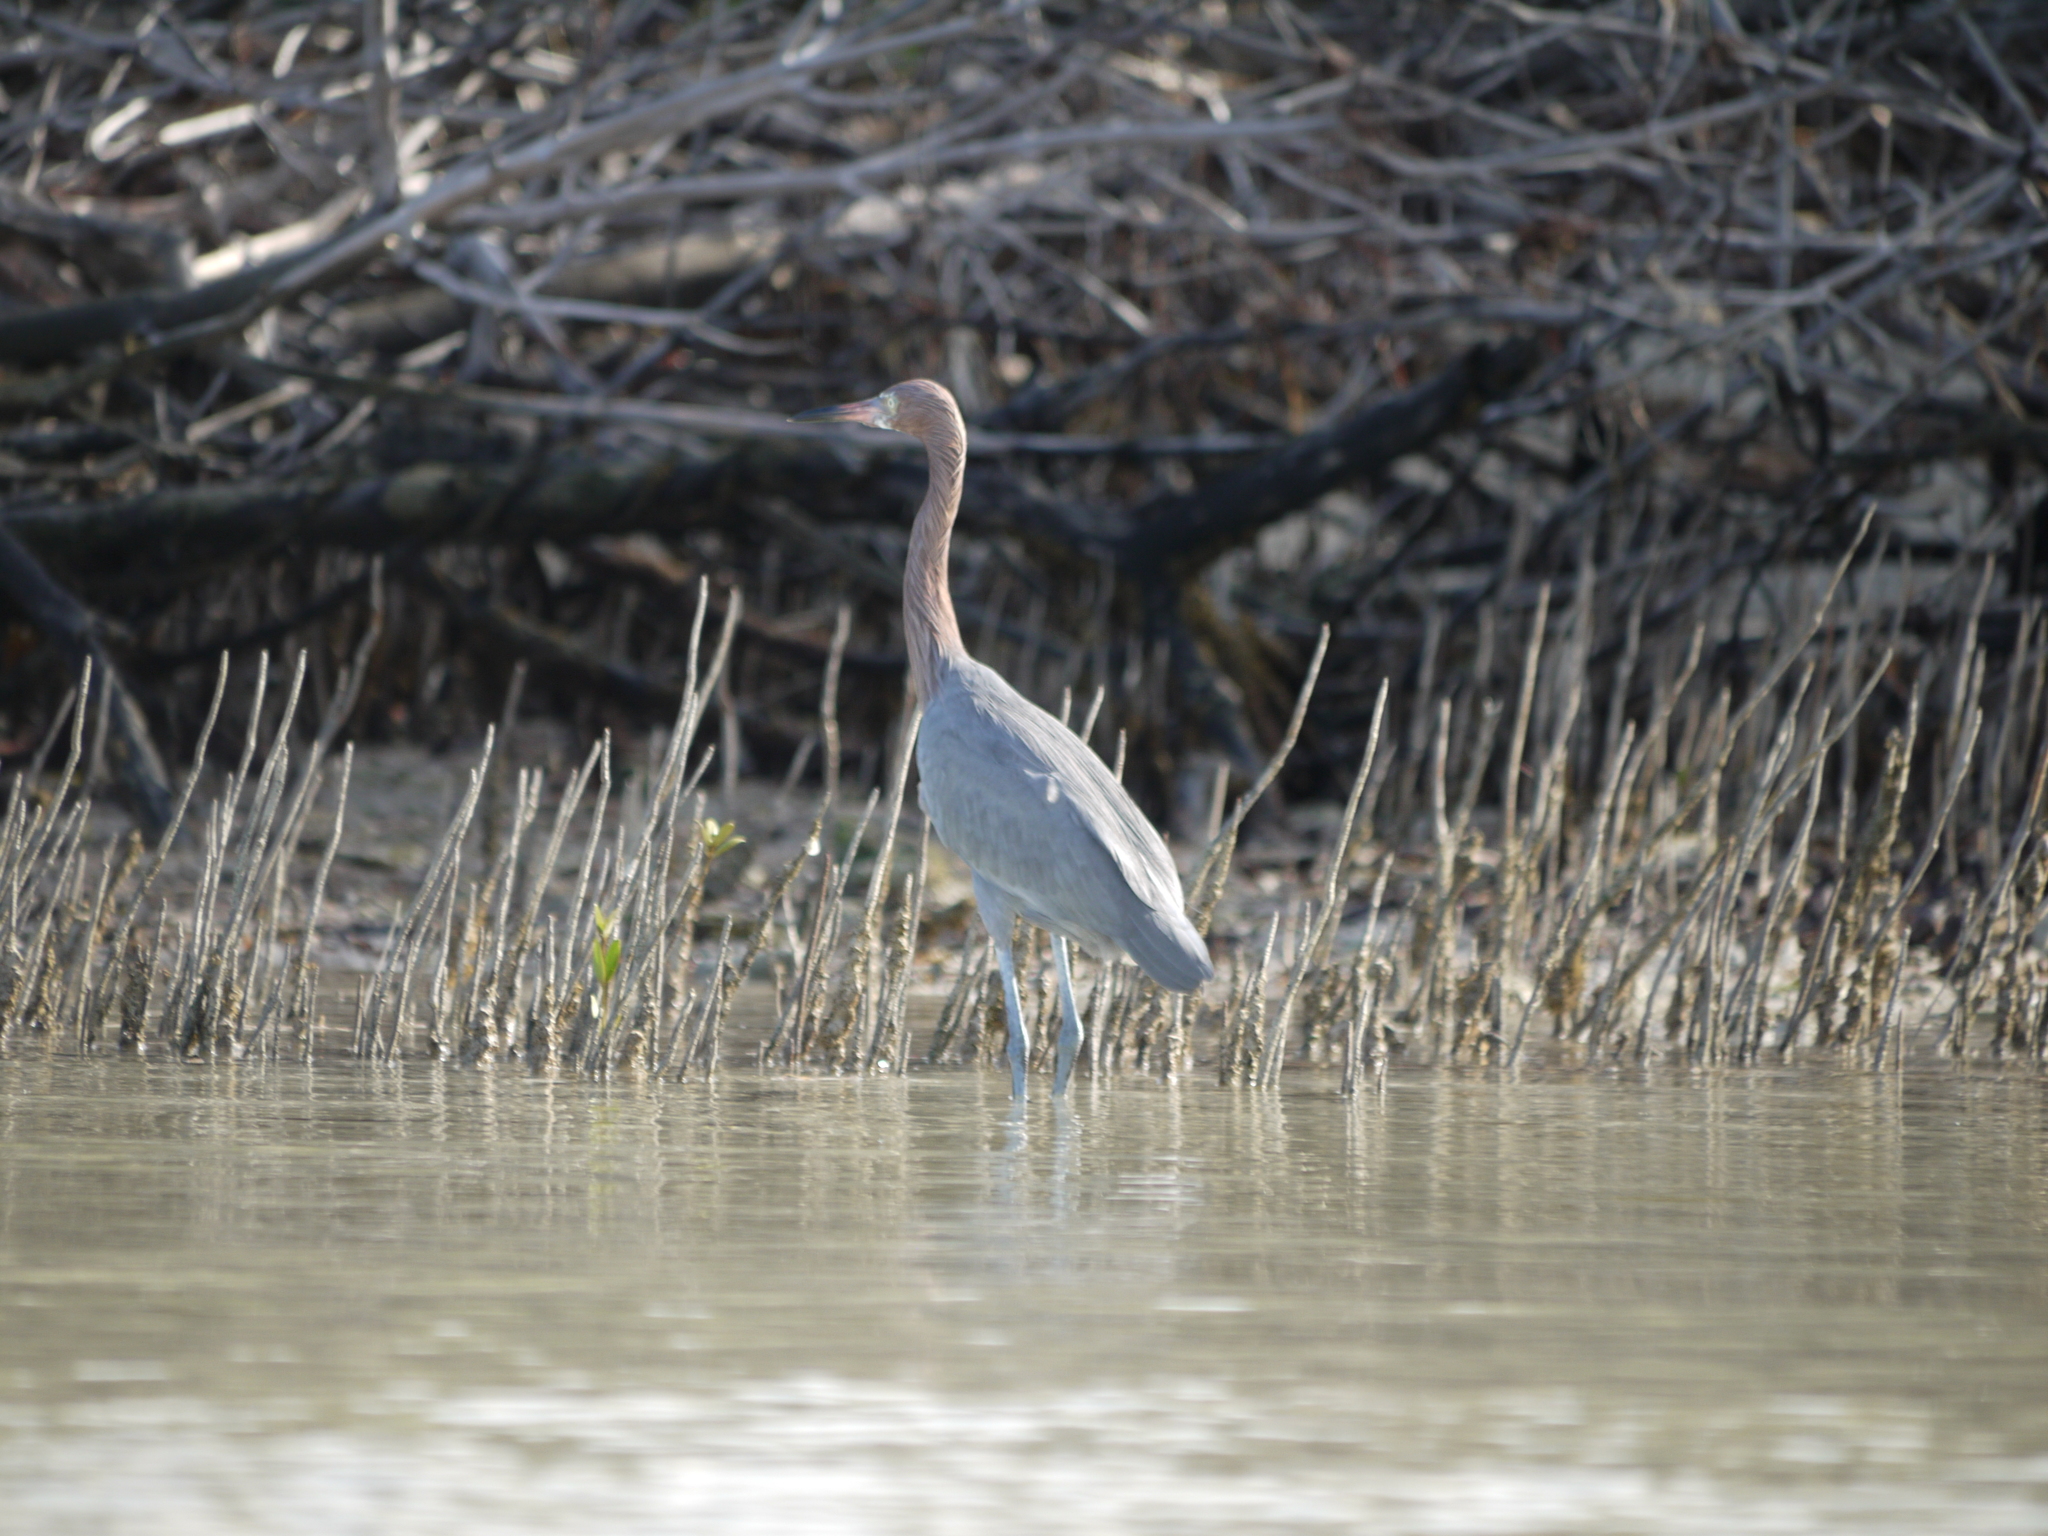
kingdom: Animalia
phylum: Chordata
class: Aves
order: Pelecaniformes
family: Ardeidae
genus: Egretta
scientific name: Egretta rufescens
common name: Reddish egret
